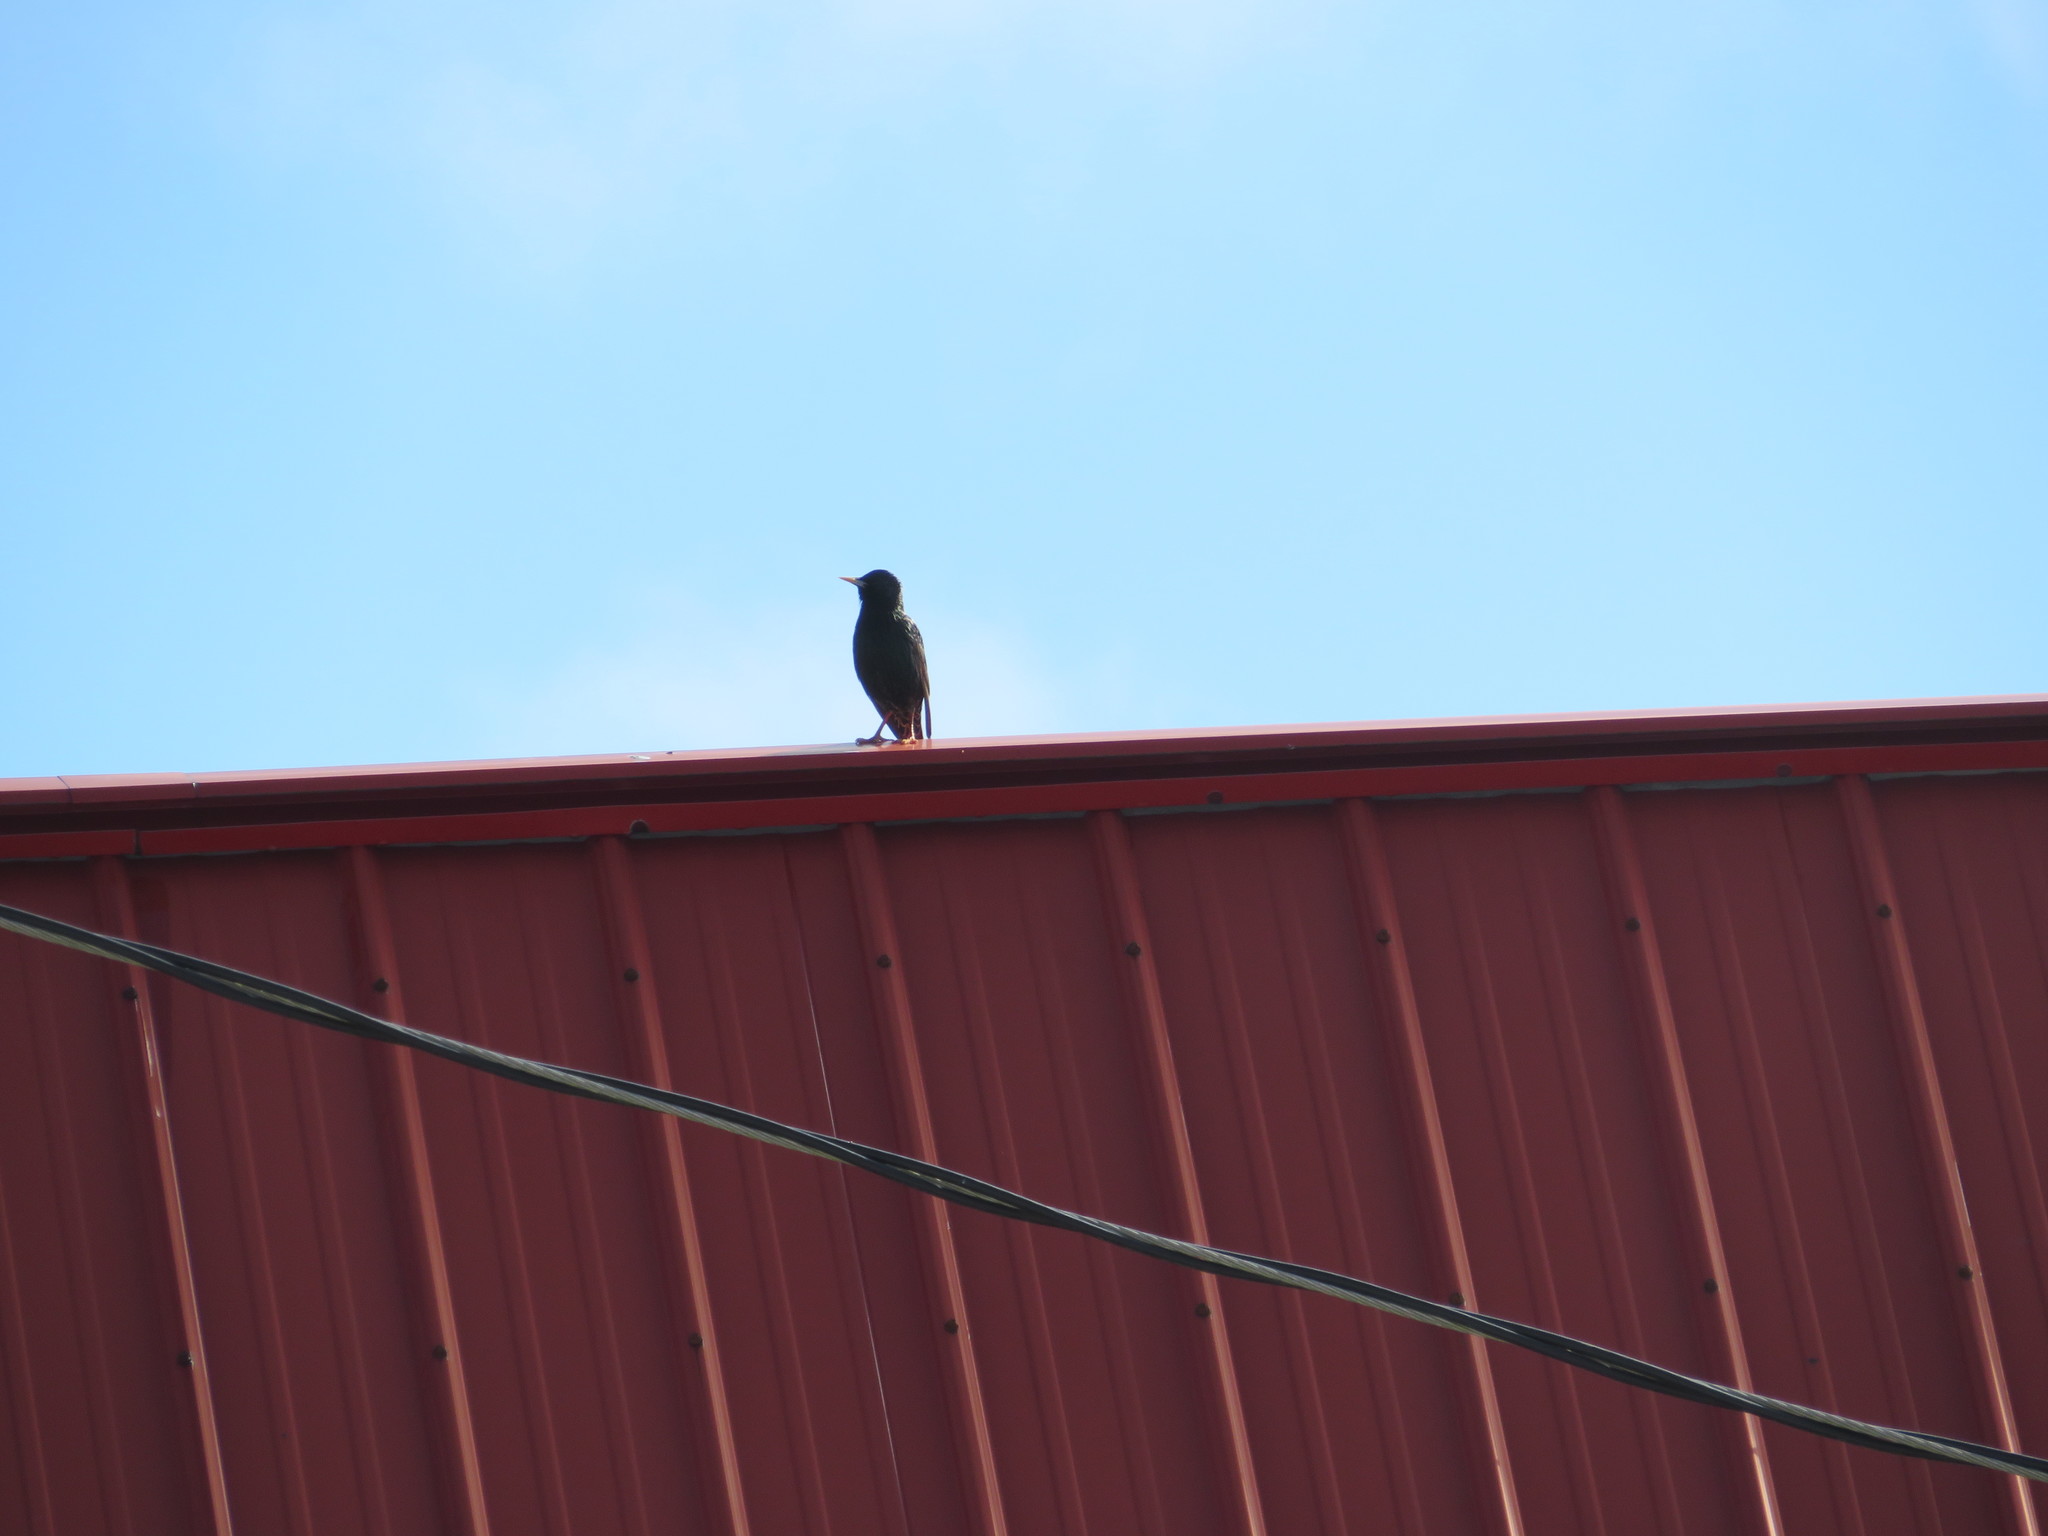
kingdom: Animalia
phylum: Chordata
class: Aves
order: Passeriformes
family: Sturnidae
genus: Sturnus
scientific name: Sturnus vulgaris
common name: Common starling
